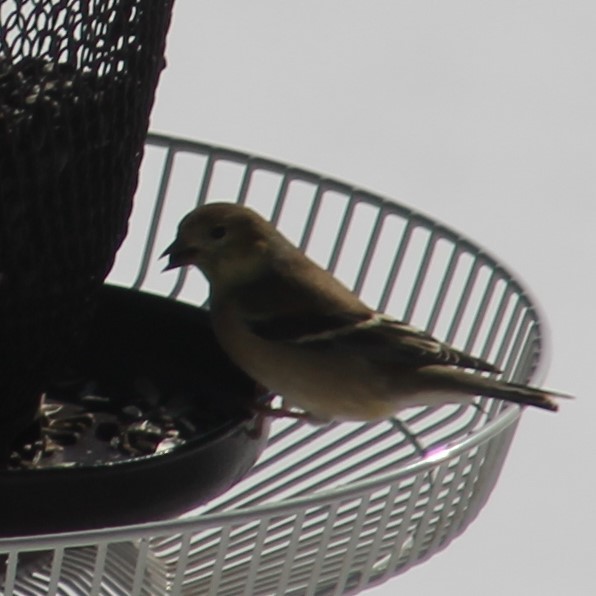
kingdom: Animalia
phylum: Chordata
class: Aves
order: Passeriformes
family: Fringillidae
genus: Spinus
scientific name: Spinus tristis
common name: American goldfinch
